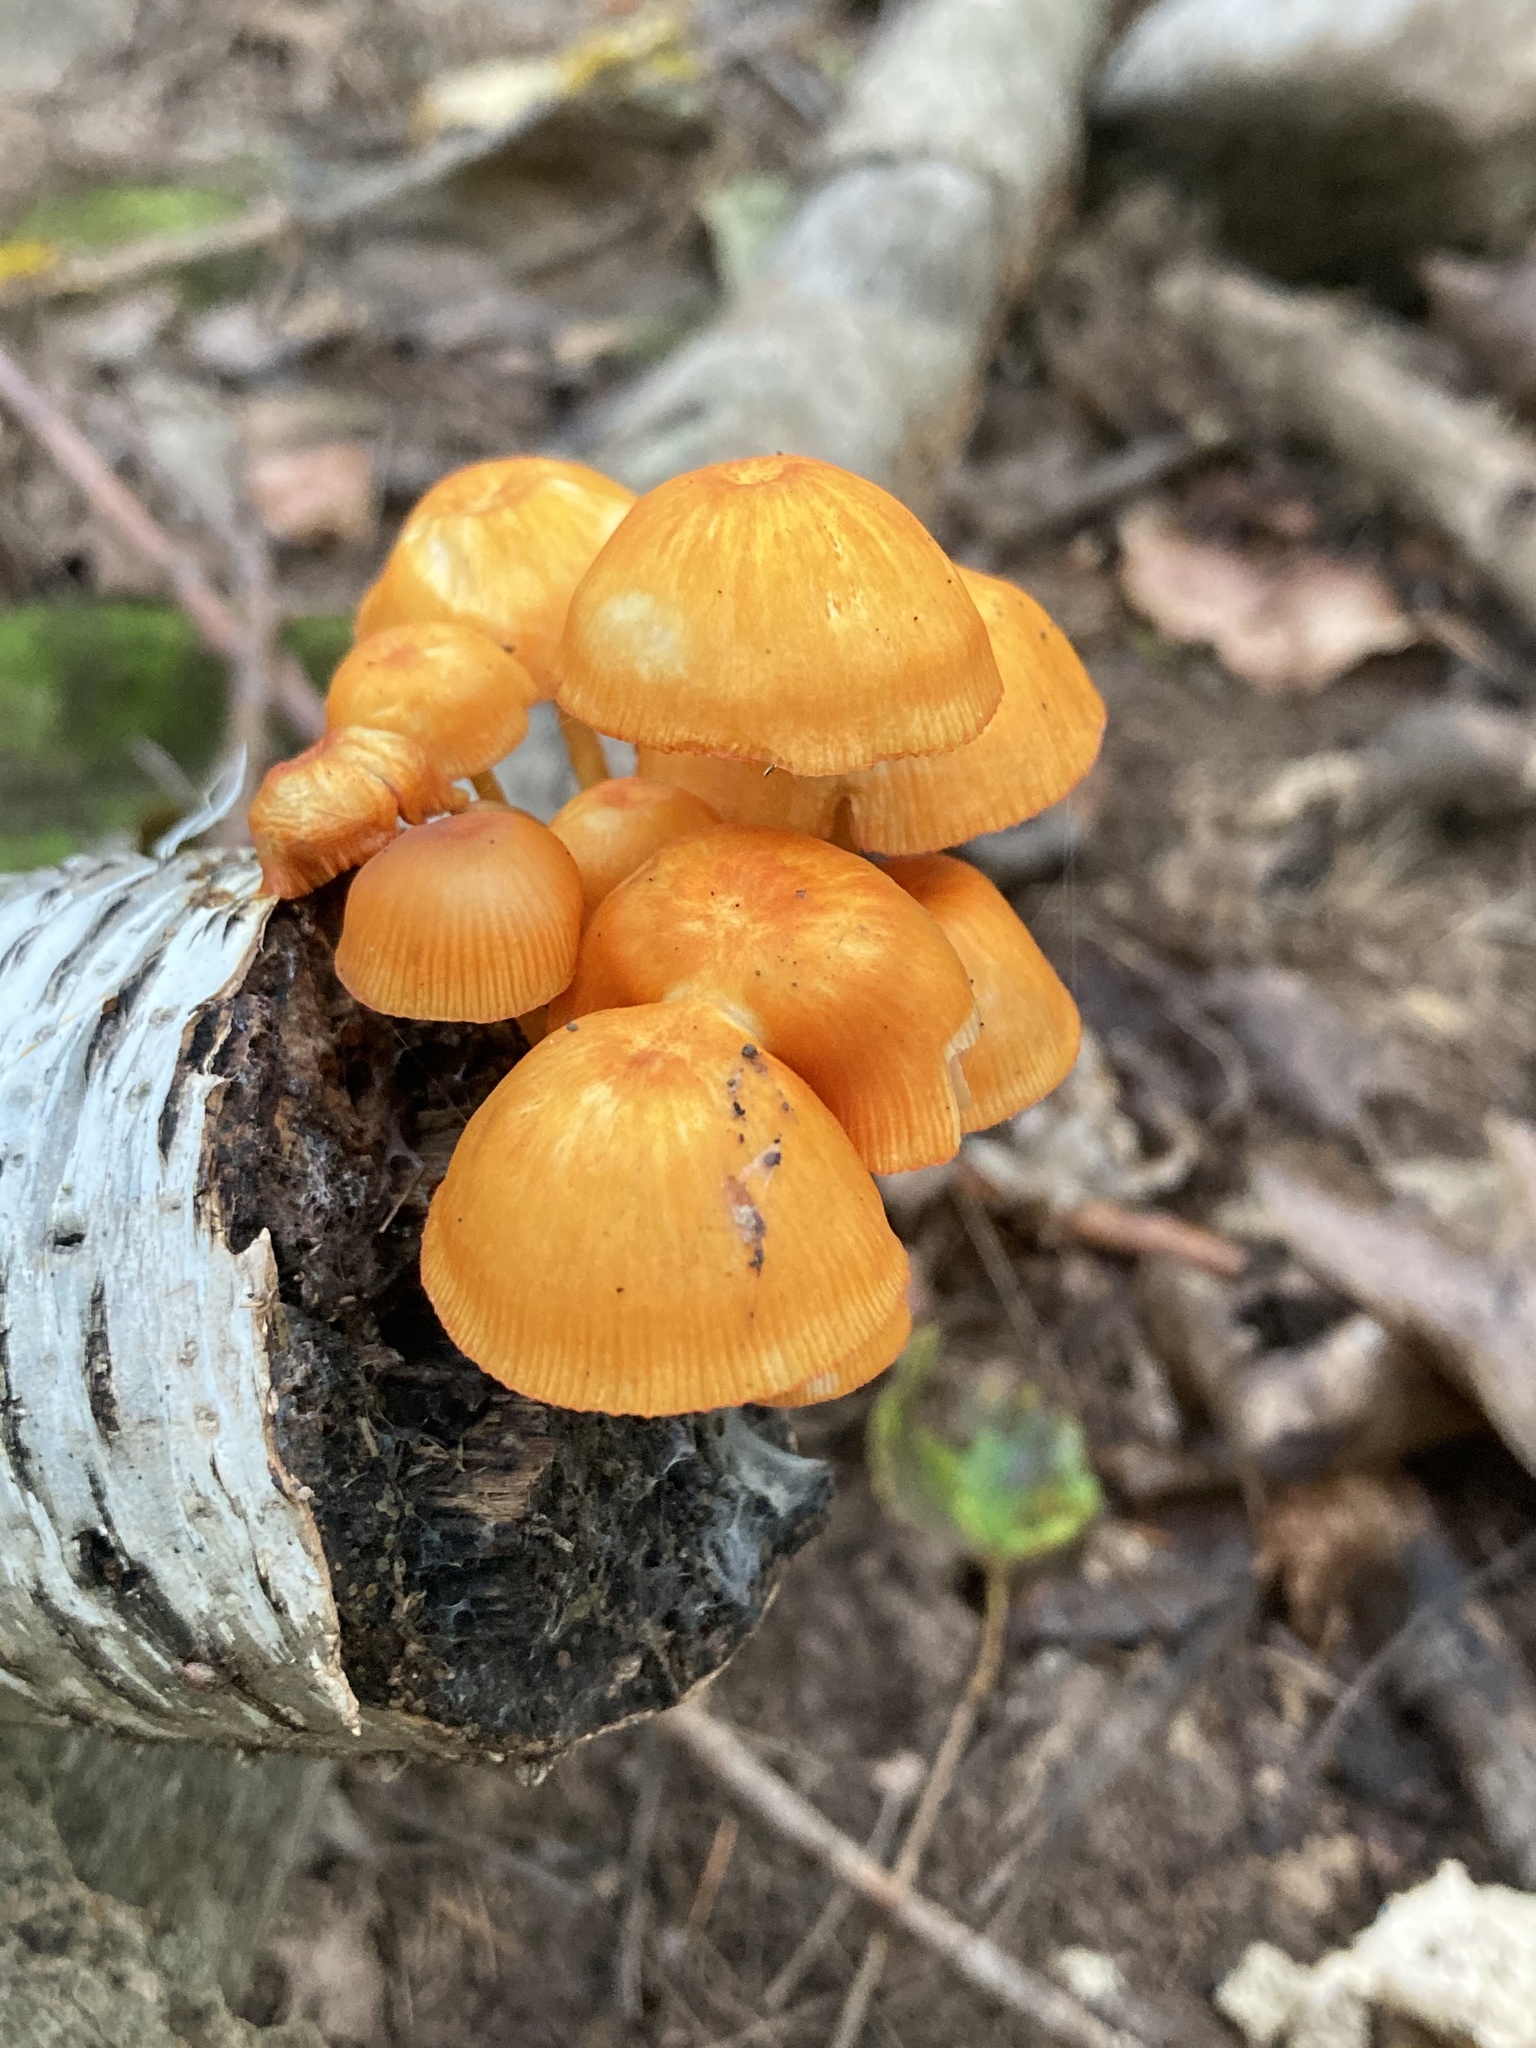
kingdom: Fungi
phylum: Basidiomycota
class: Agaricomycetes
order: Agaricales
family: Mycenaceae
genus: Mycena
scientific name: Mycena leaiana
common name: Orange mycena
